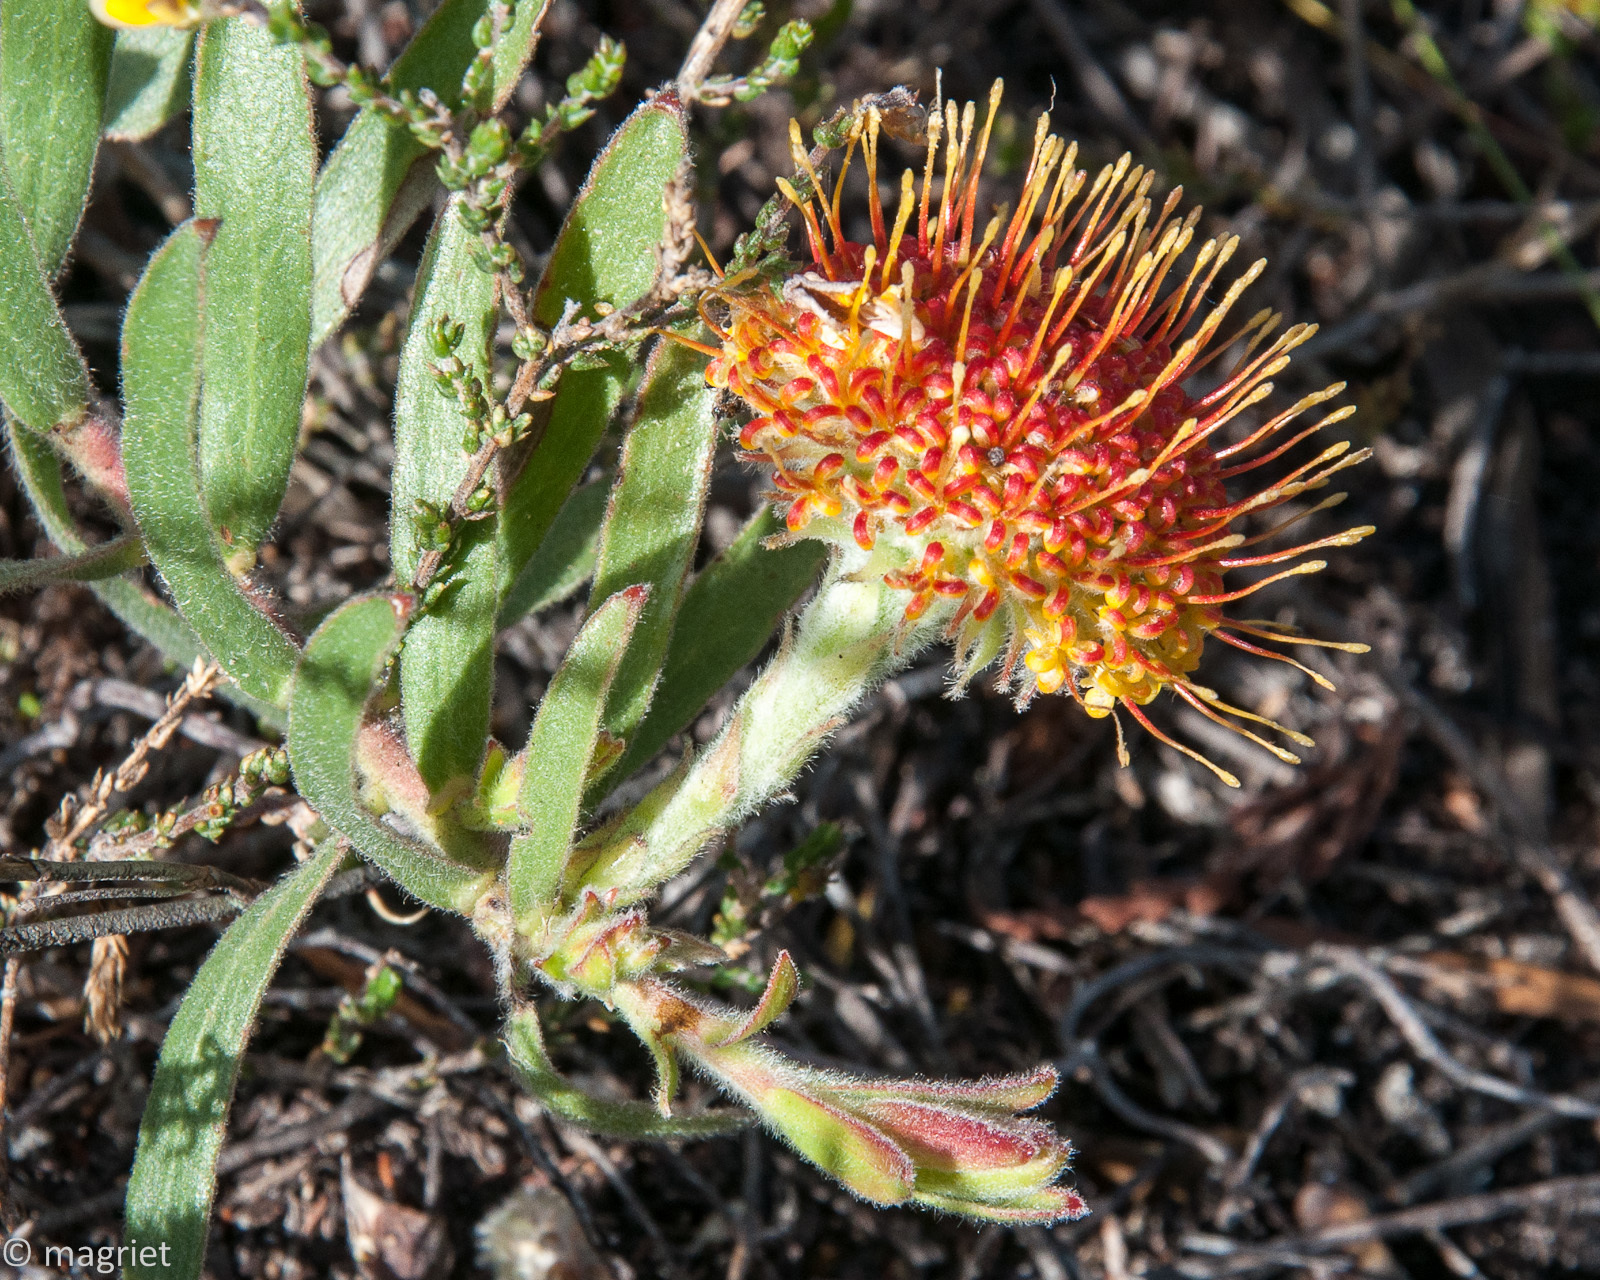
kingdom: Plantae
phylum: Tracheophyta
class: Magnoliopsida
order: Proteales
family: Proteaceae
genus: Leucospermum
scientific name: Leucospermum prostratum
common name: Yellow-trailing pincushion
